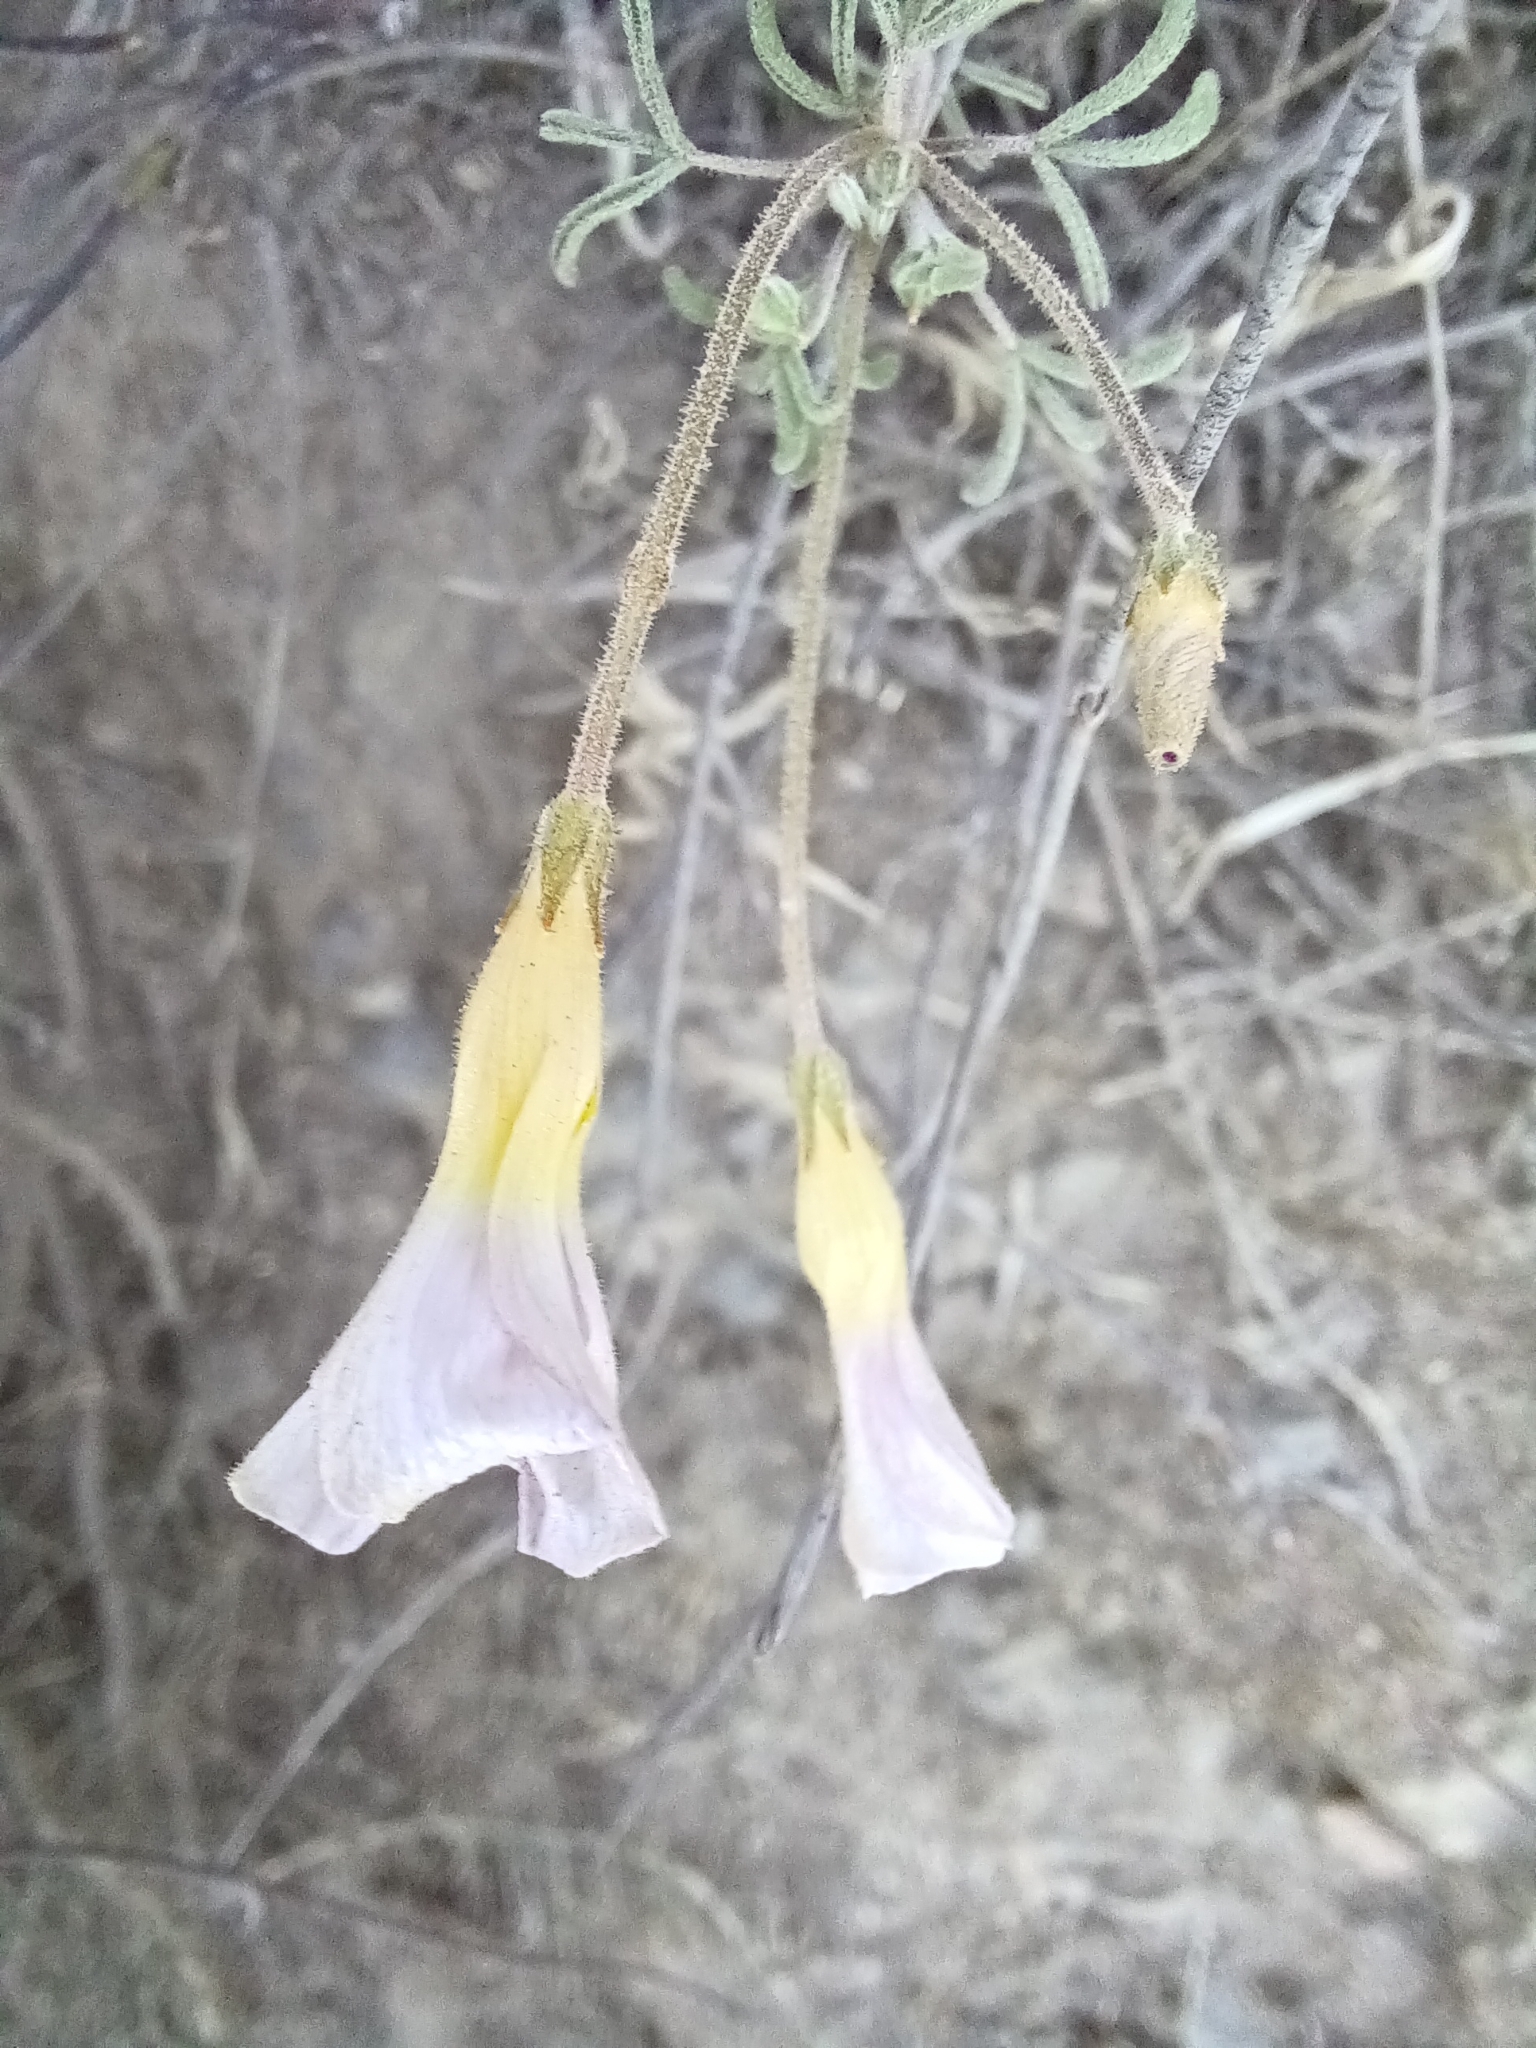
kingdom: Plantae
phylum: Tracheophyta
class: Magnoliopsida
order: Oxalidales
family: Oxalidaceae
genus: Oxalis
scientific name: Oxalis ciliaris
